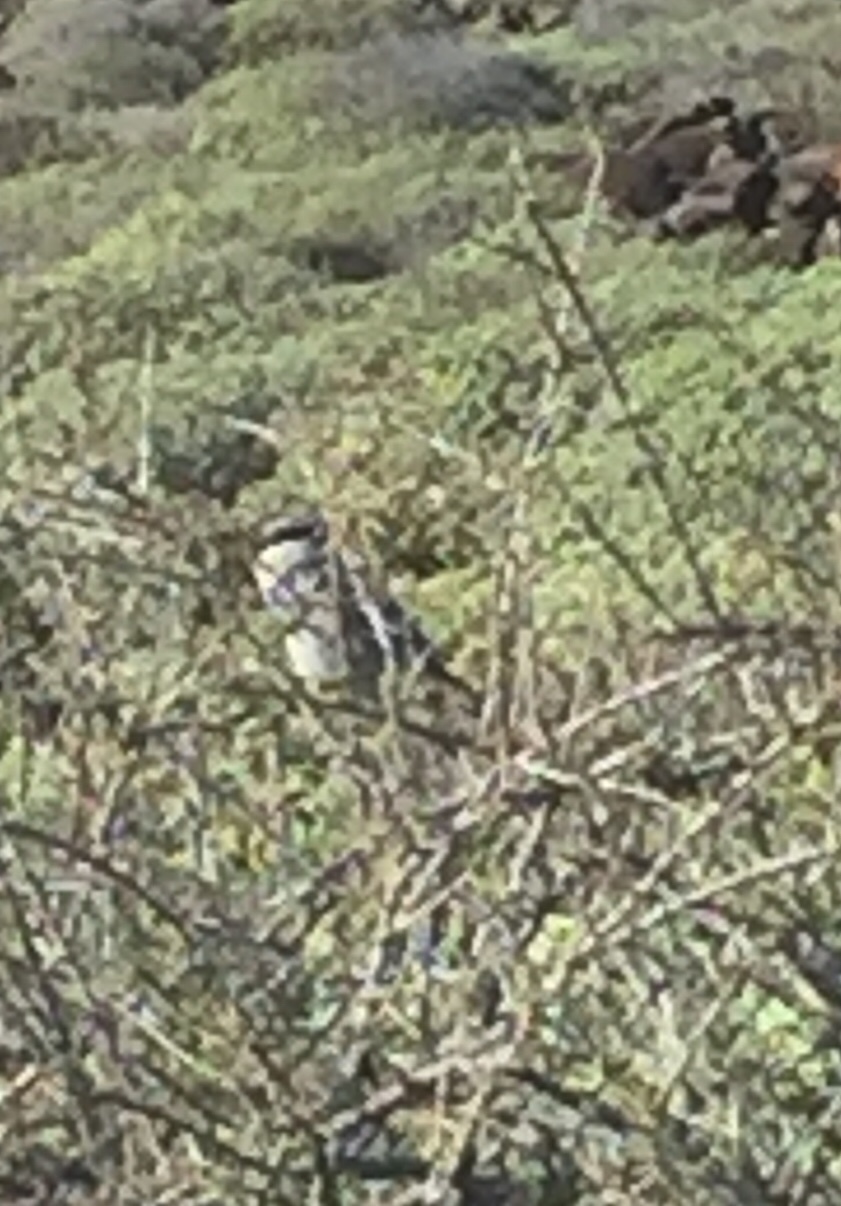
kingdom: Animalia
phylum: Chordata
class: Aves
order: Passeriformes
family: Laniidae
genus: Lanius
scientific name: Lanius excubitor
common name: Great grey shrike
